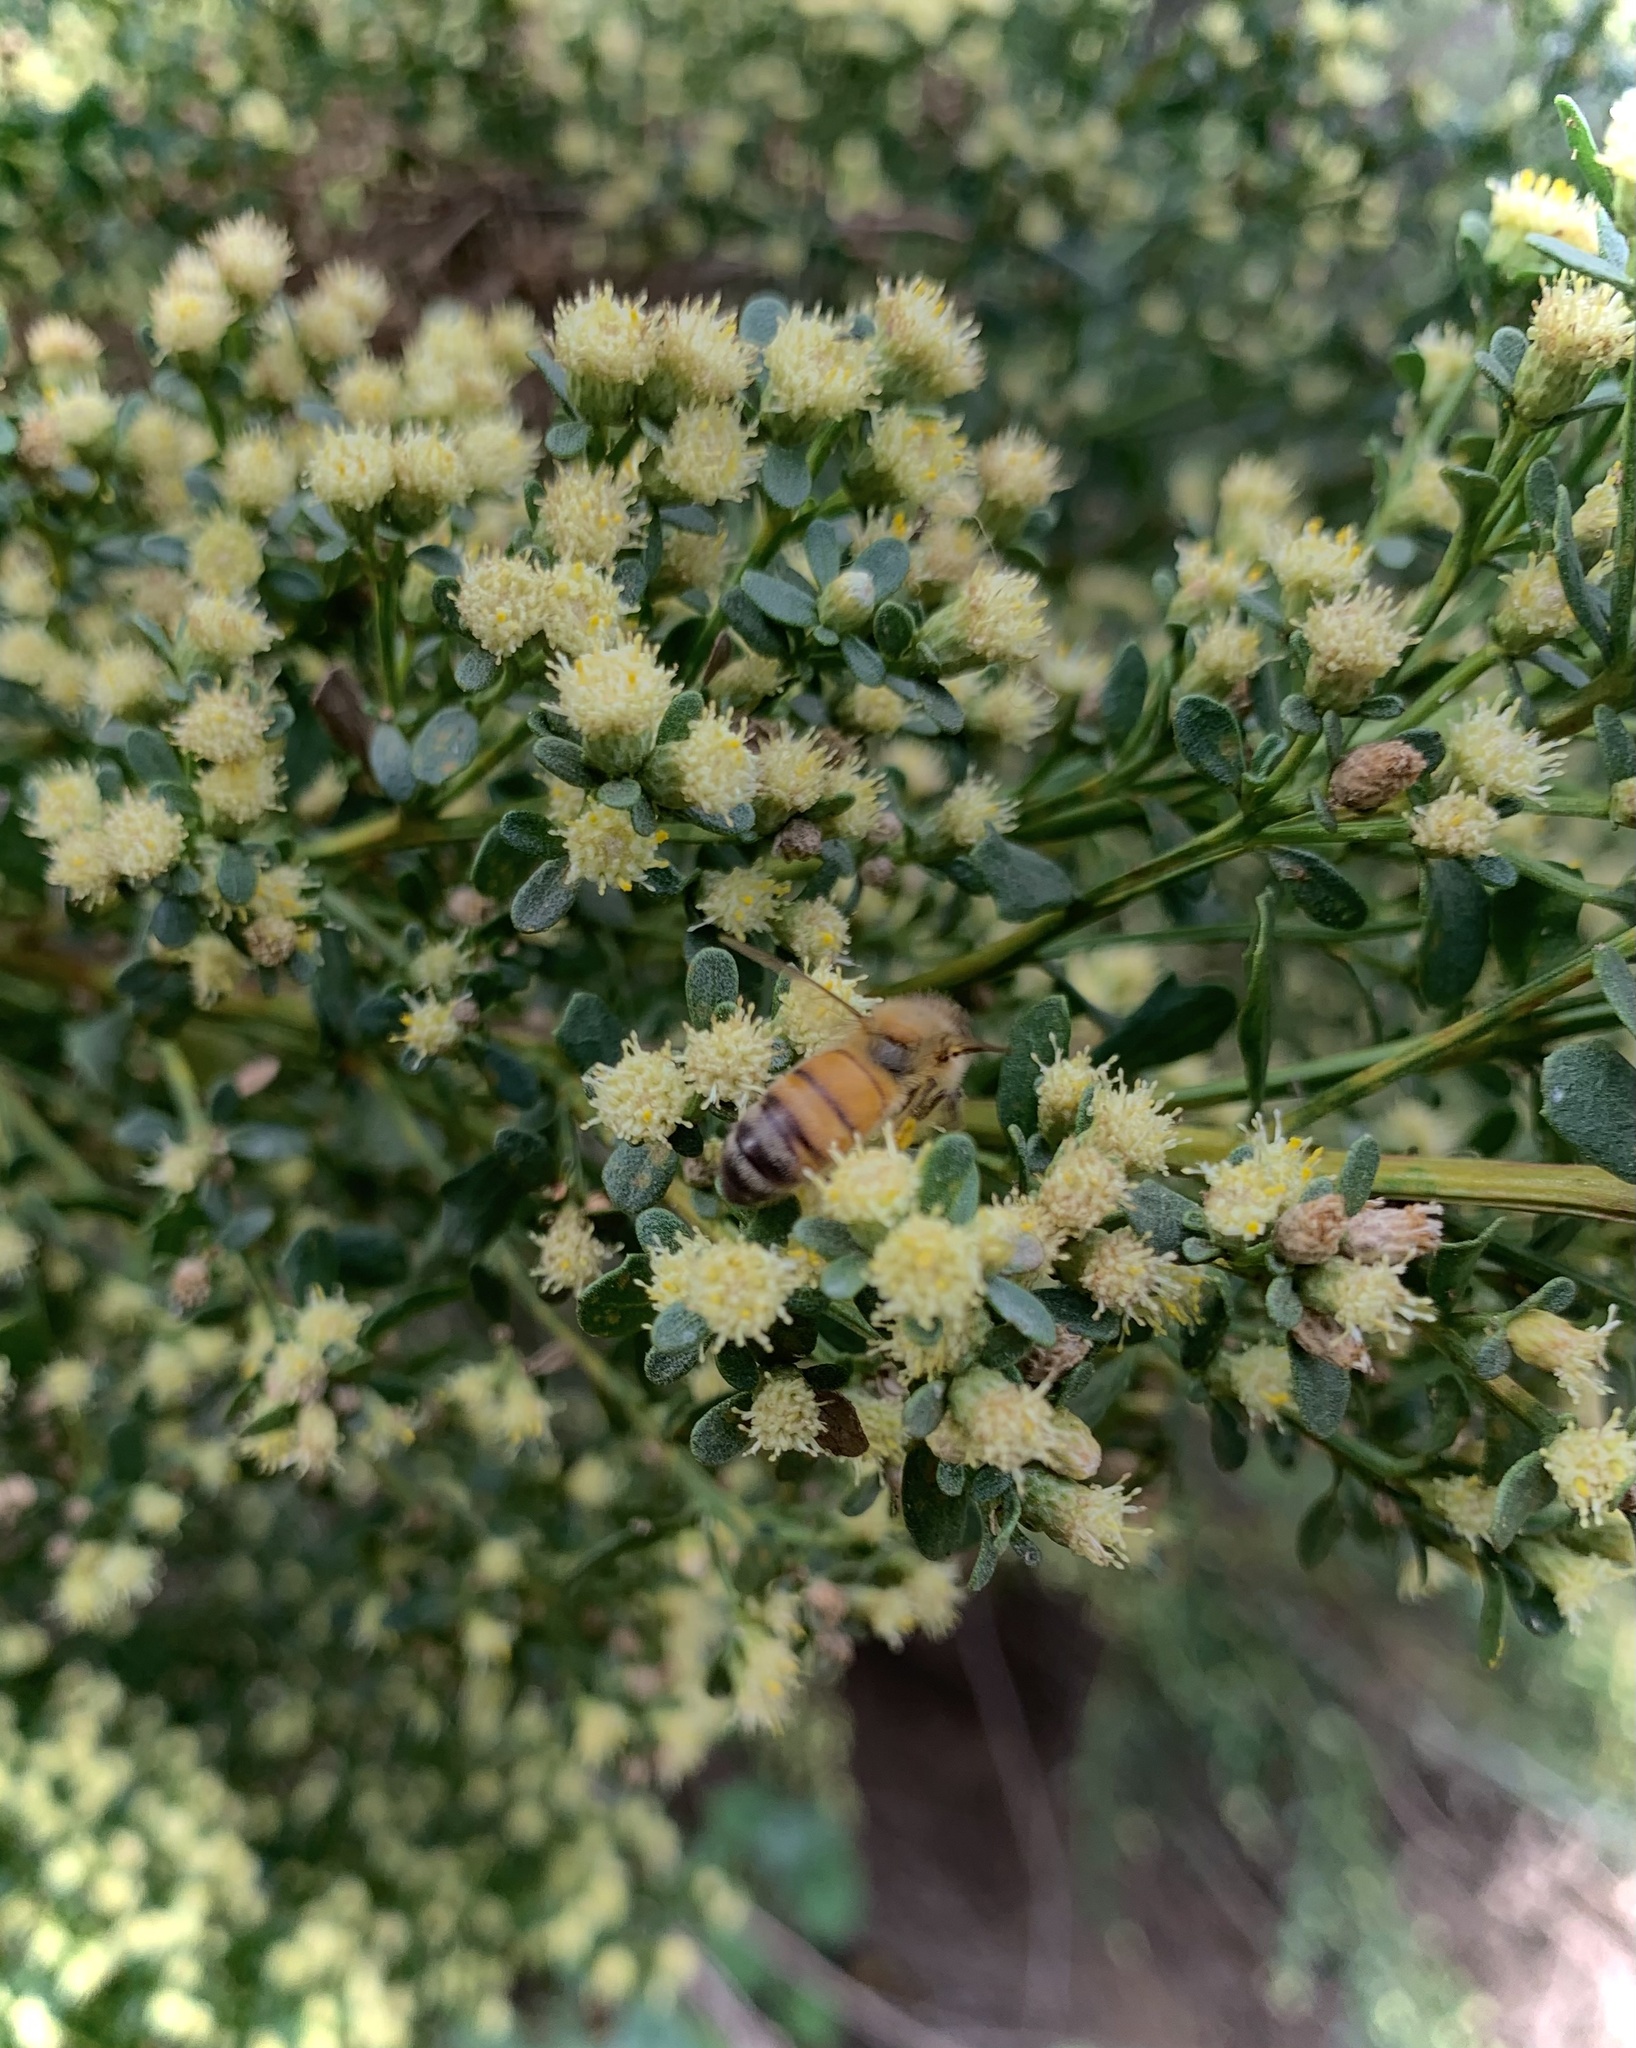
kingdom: Animalia
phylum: Arthropoda
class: Insecta
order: Hymenoptera
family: Apidae
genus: Apis
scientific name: Apis mellifera
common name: Honey bee
